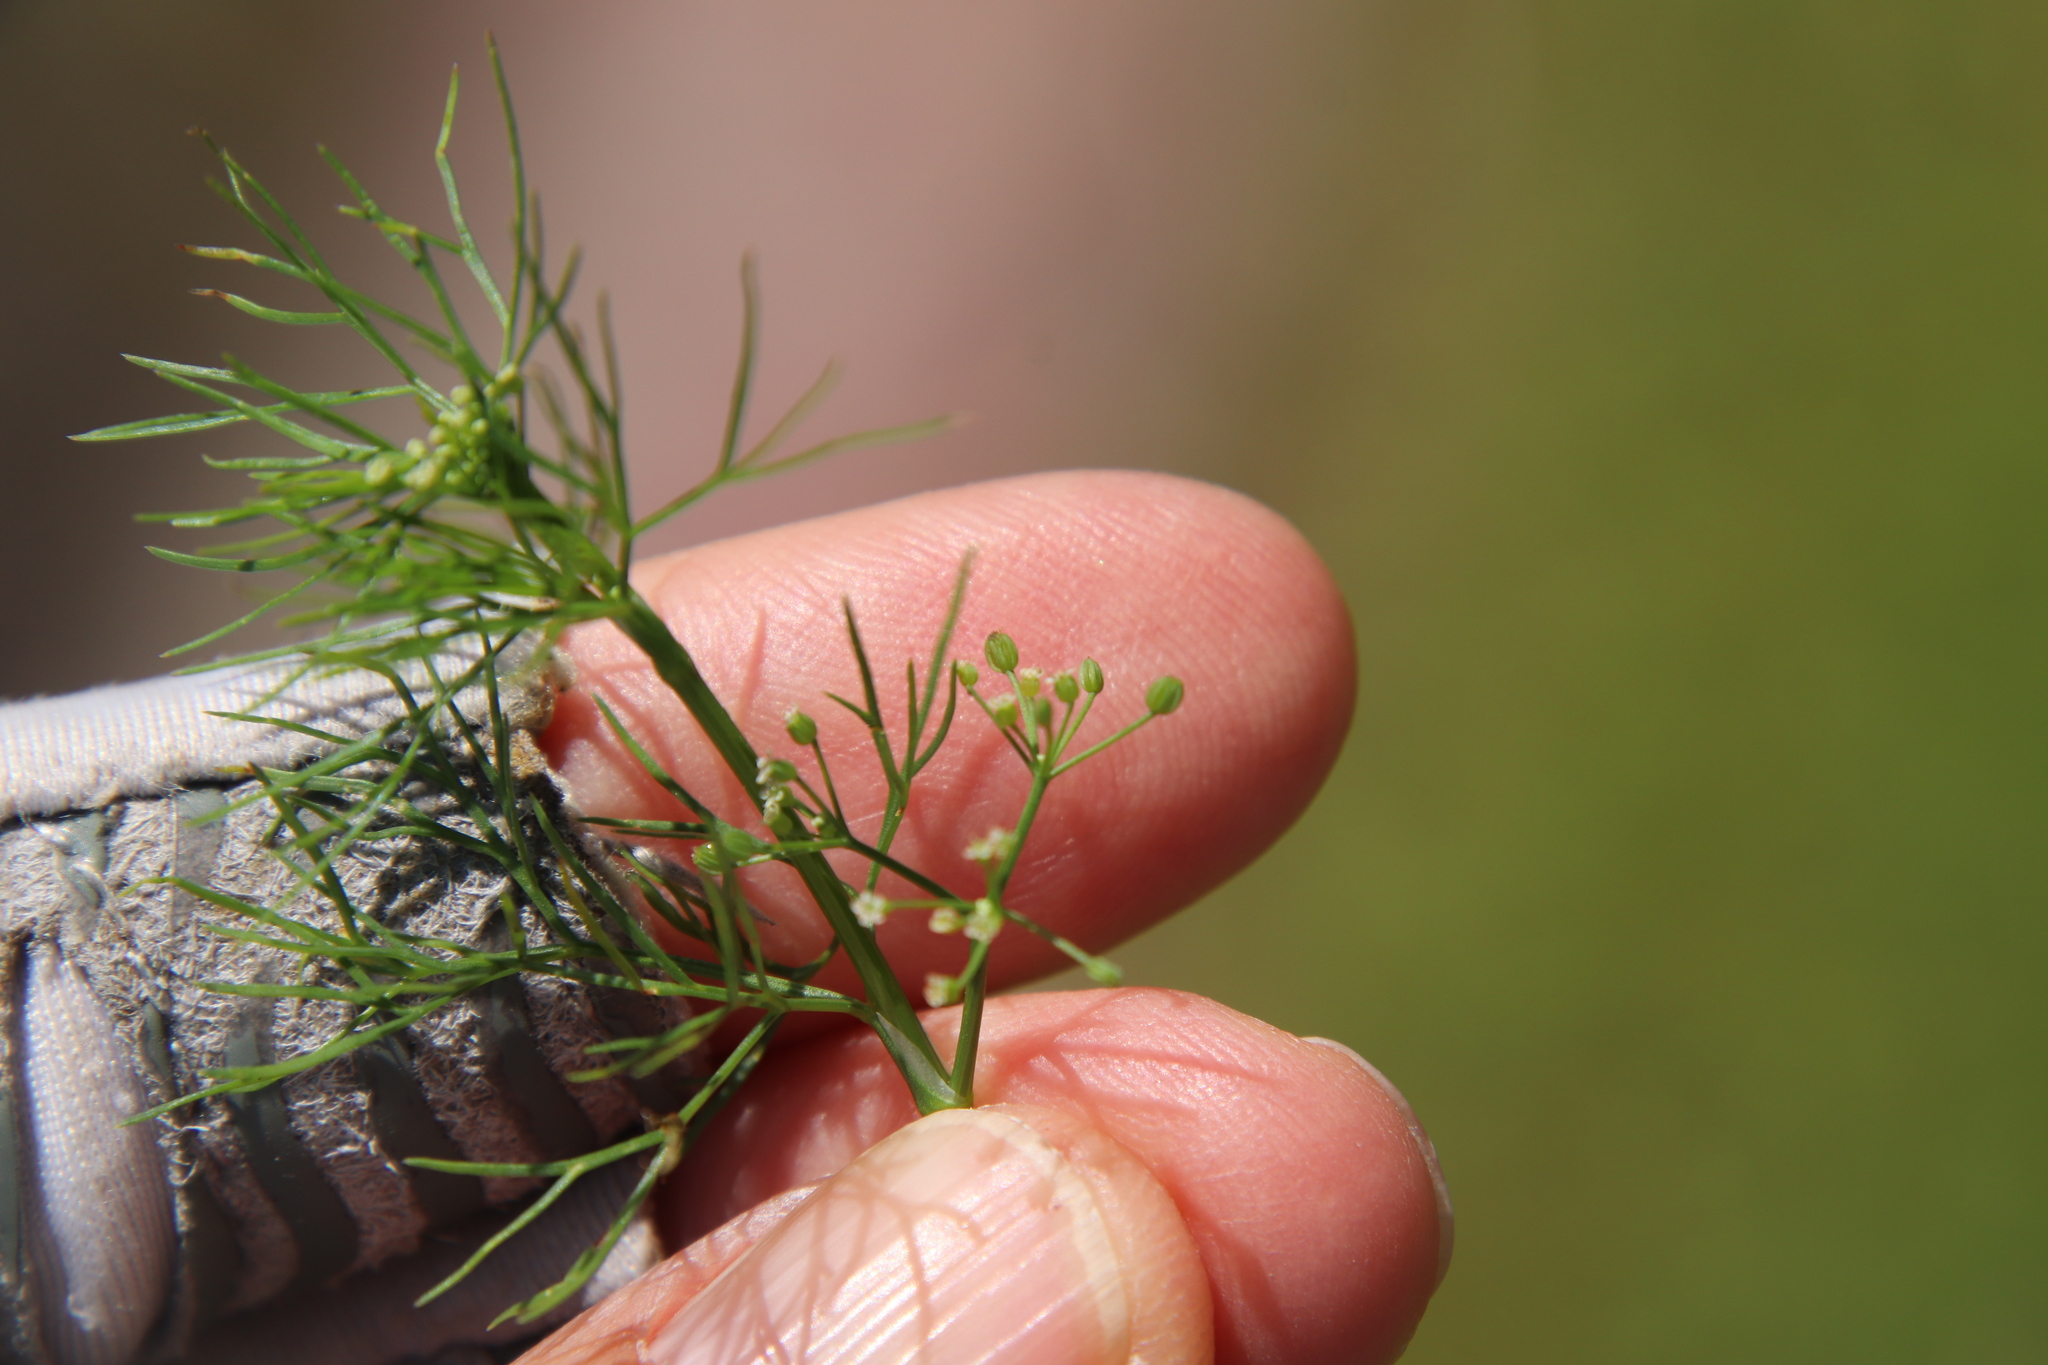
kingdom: Plantae
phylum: Tracheophyta
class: Magnoliopsida
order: Apiales
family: Apiaceae
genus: Cyclospermum
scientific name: Cyclospermum leptophyllum
